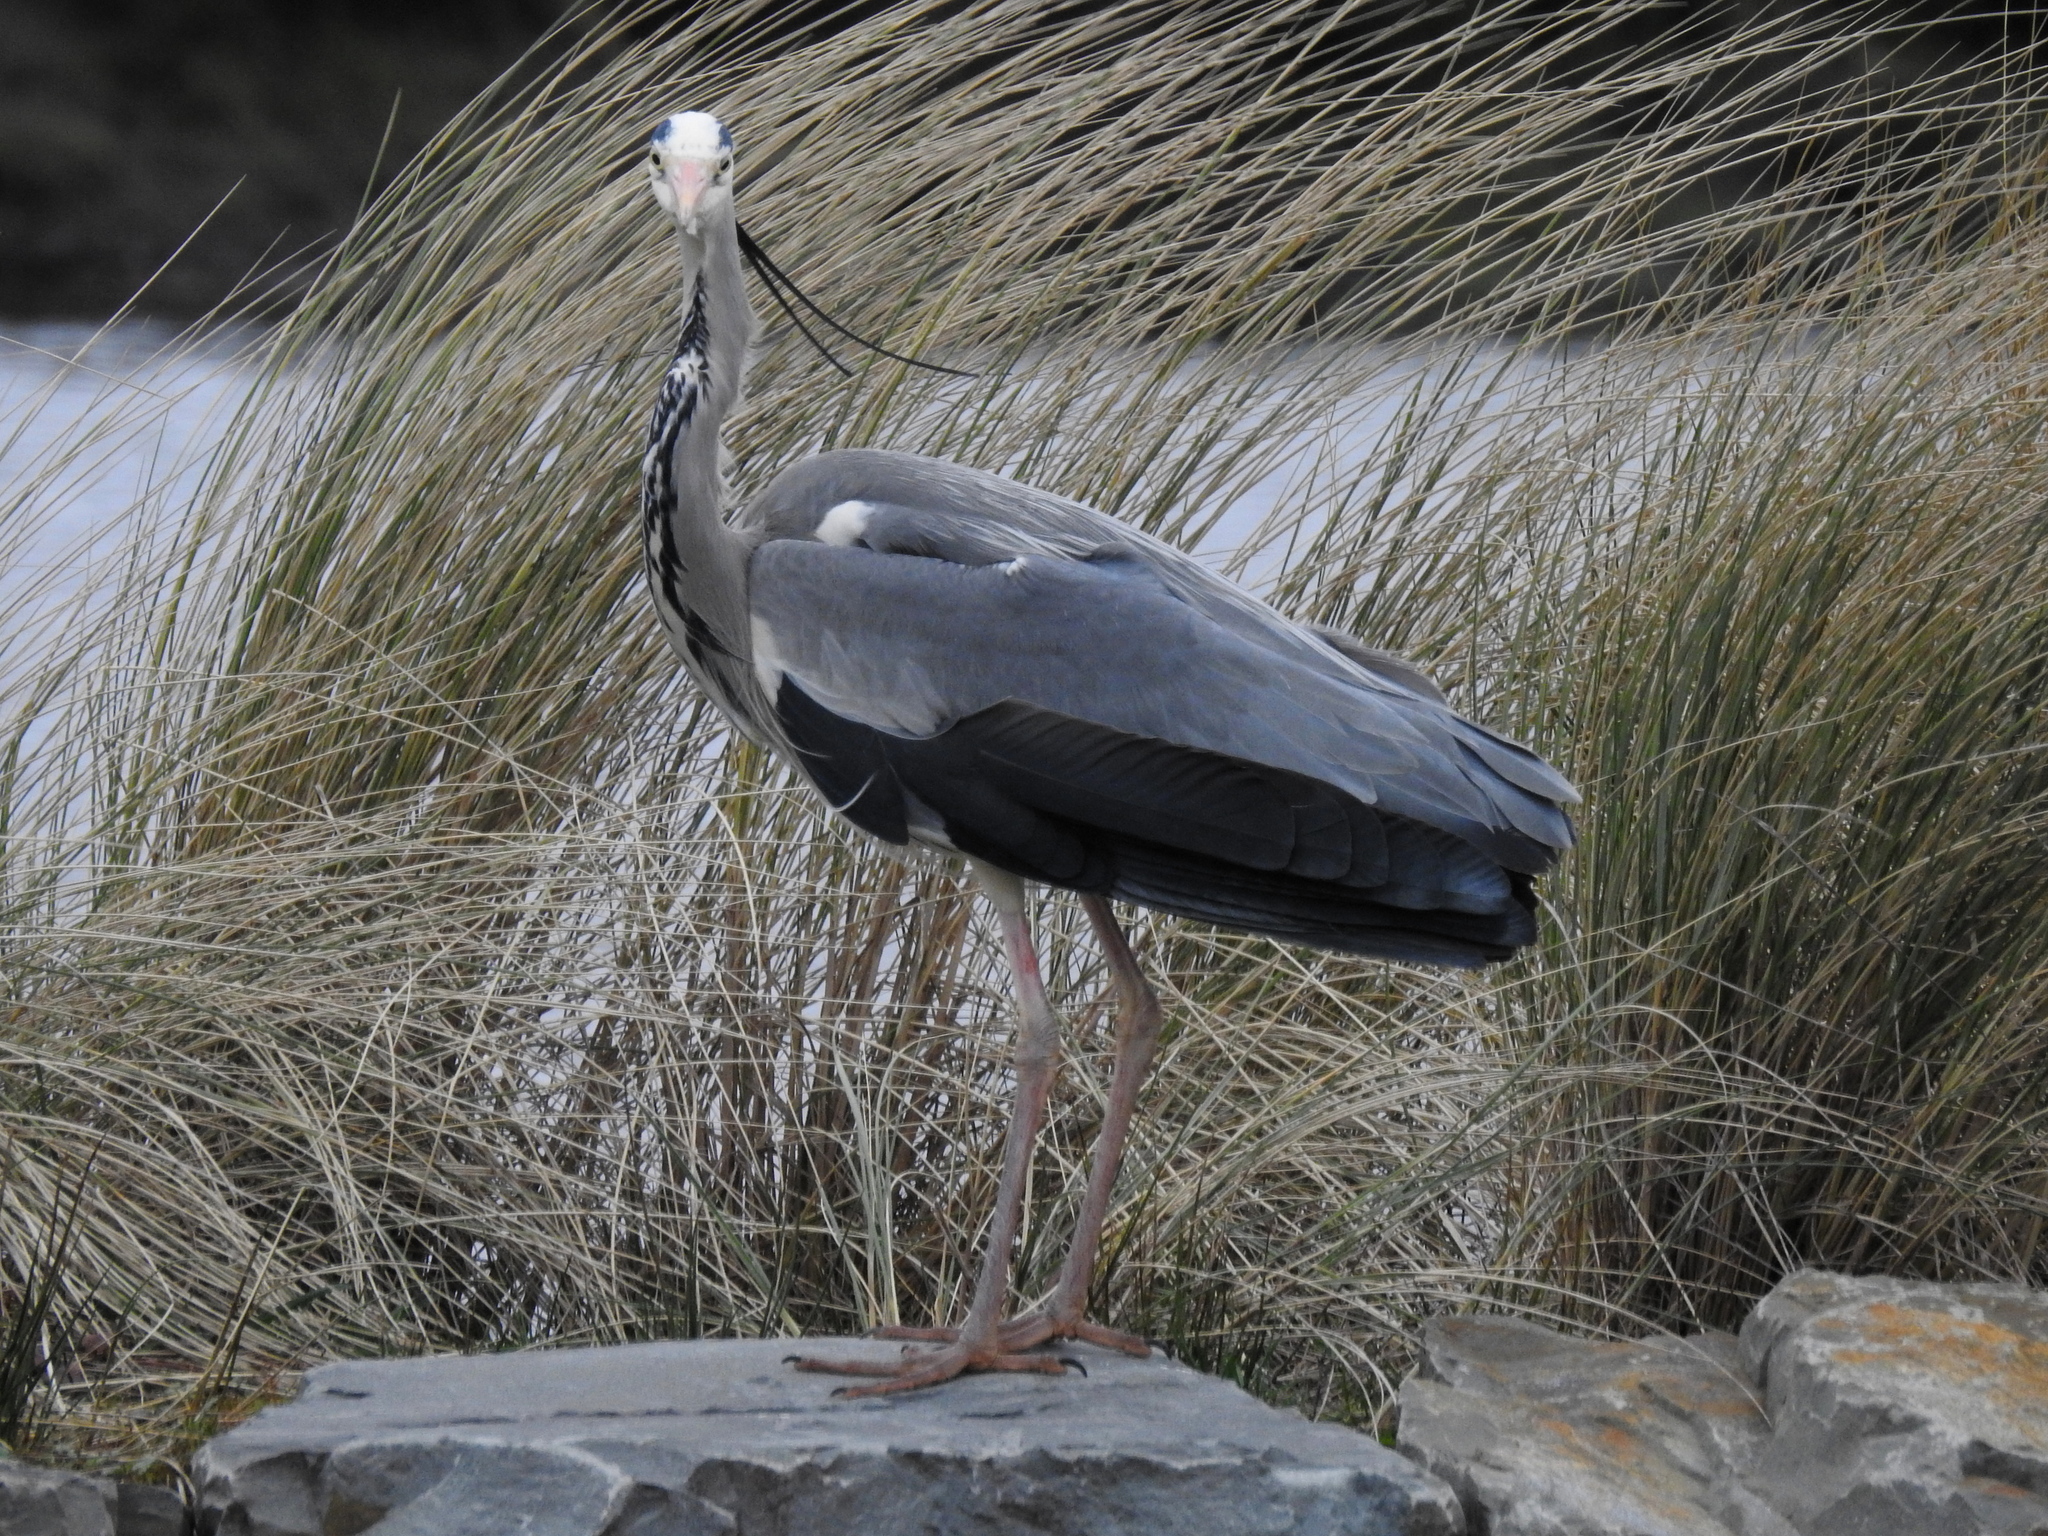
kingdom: Animalia
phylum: Chordata
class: Aves
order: Pelecaniformes
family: Ardeidae
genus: Ardea
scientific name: Ardea cinerea
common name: Grey heron
